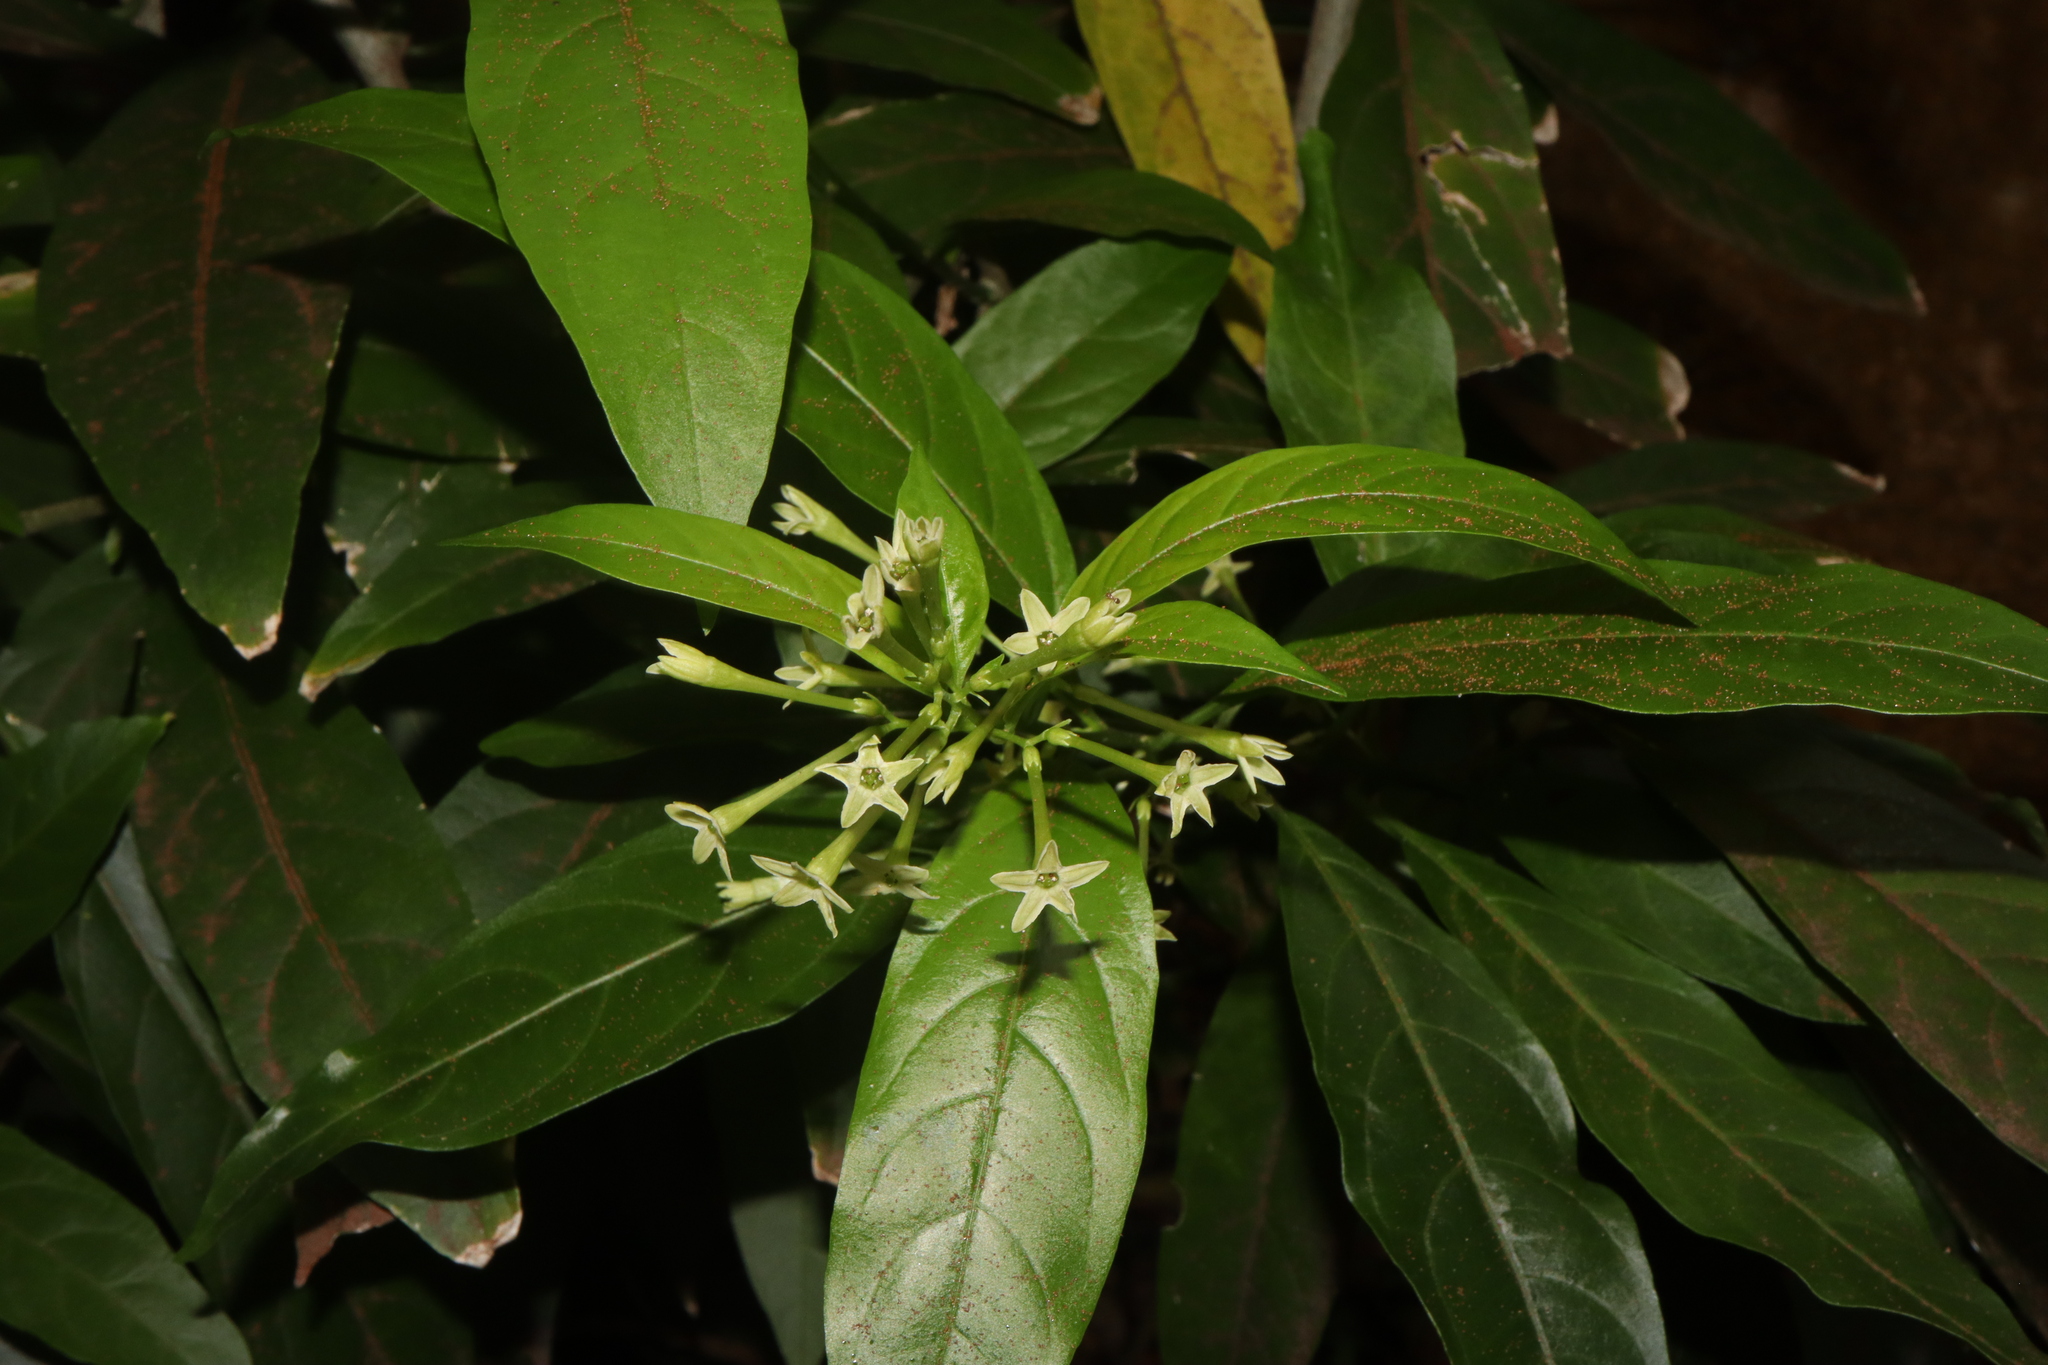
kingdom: Plantae
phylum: Tracheophyta
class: Magnoliopsida
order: Solanales
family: Solanaceae
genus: Cestrum
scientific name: Cestrum nocturnum
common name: Night jessamine
